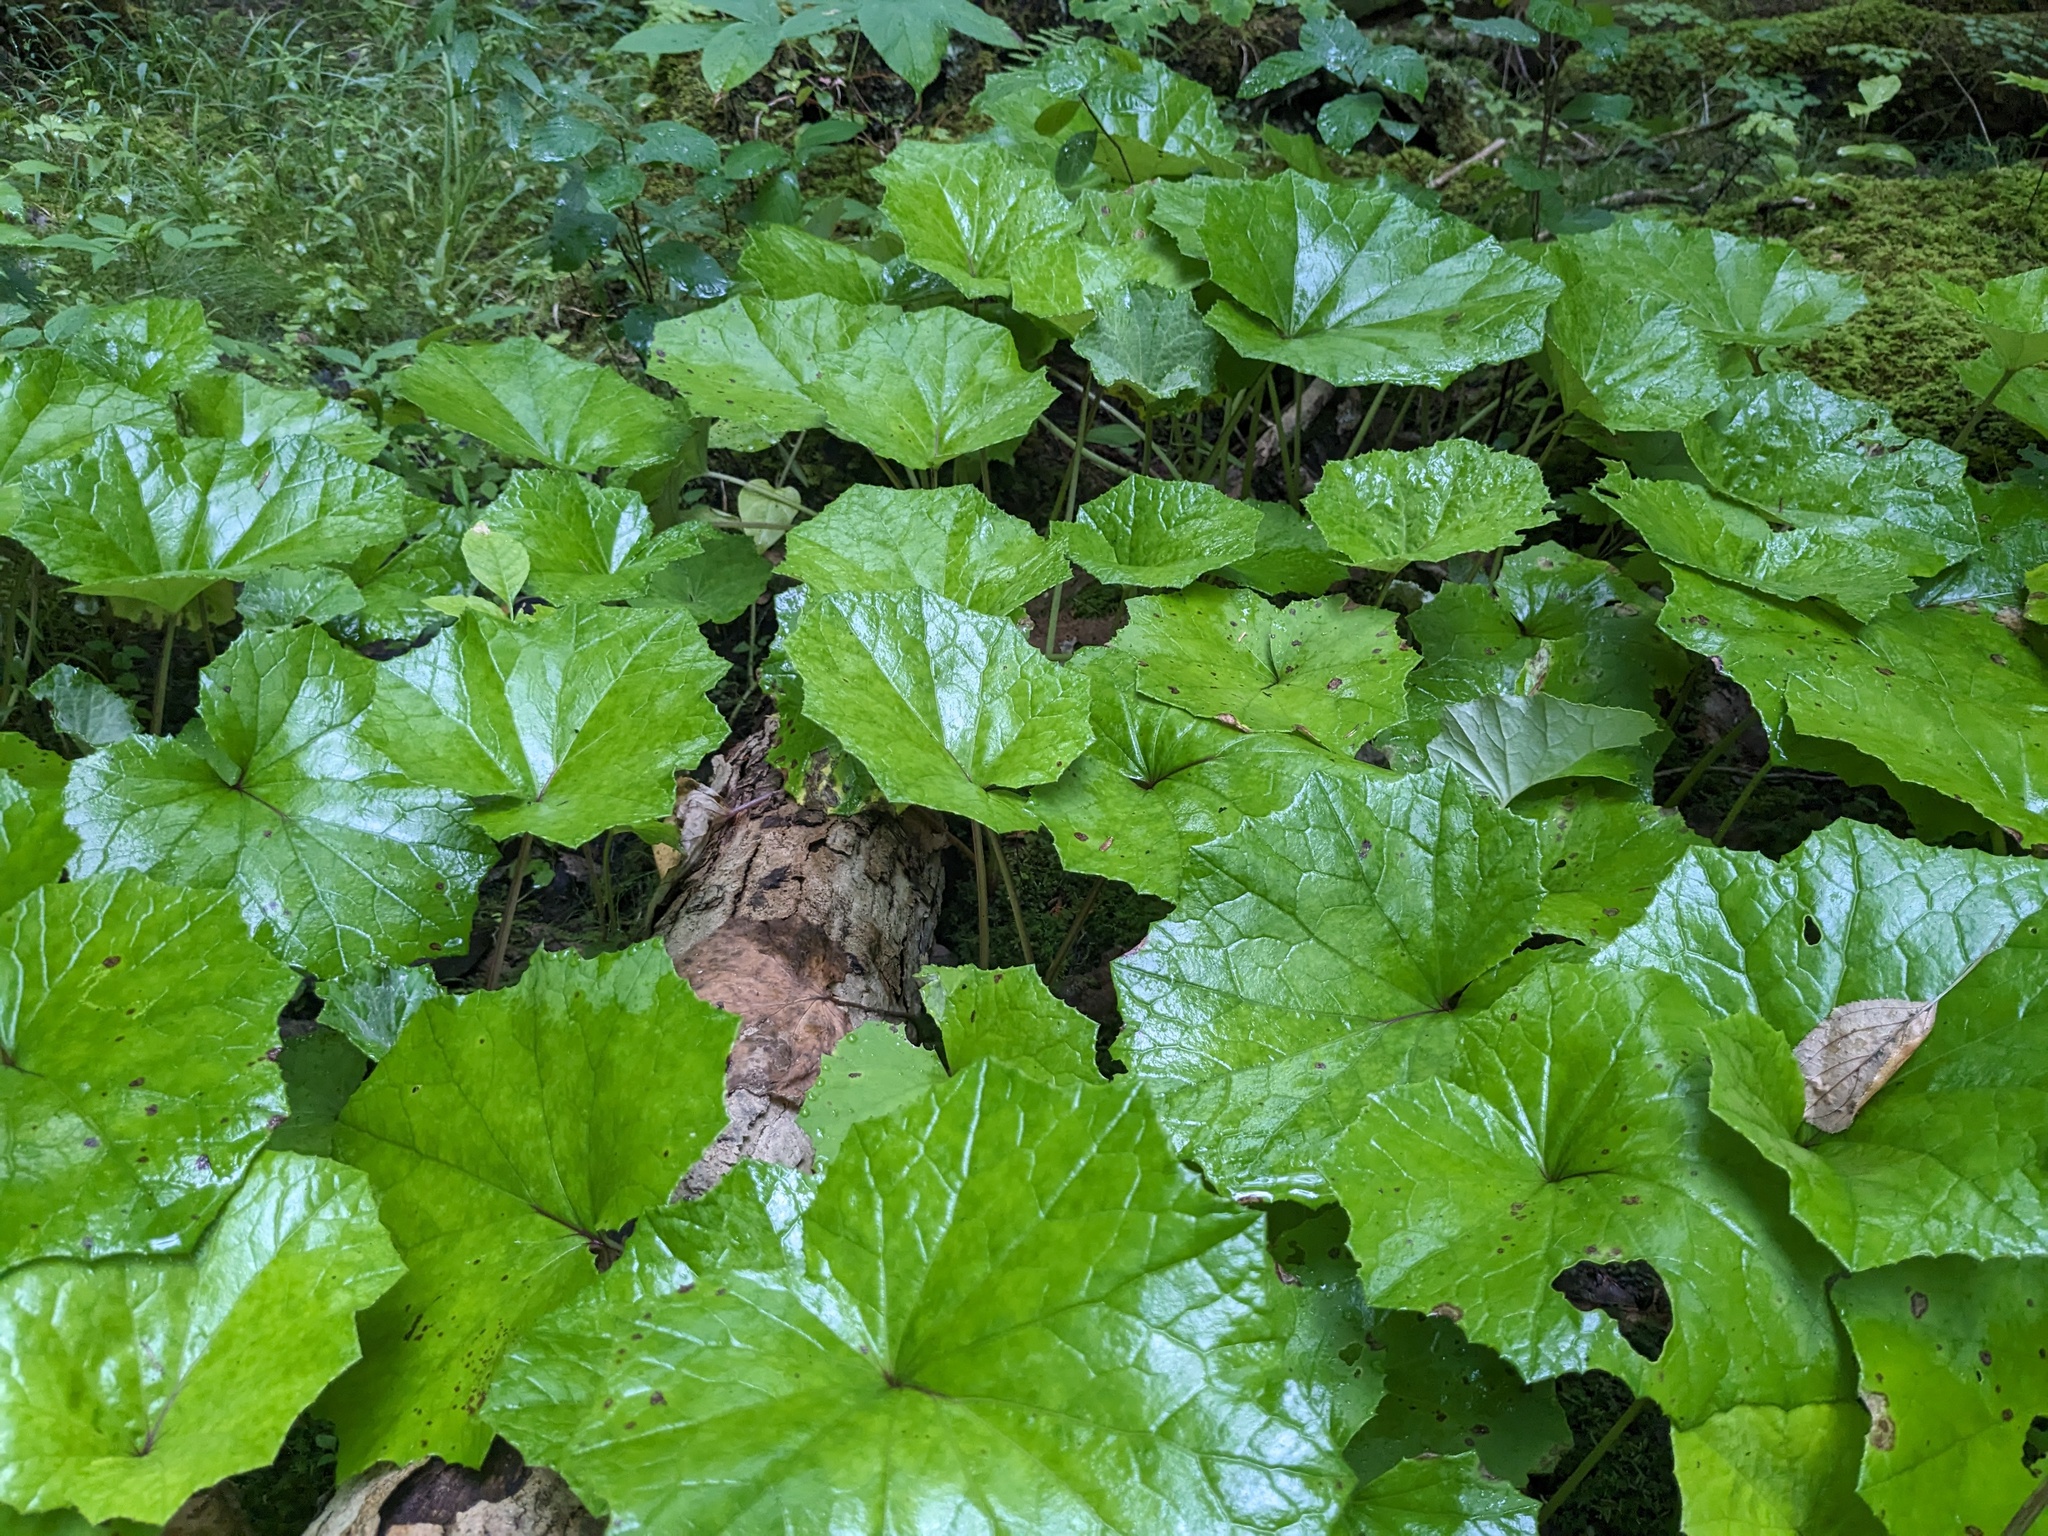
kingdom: Plantae
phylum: Tracheophyta
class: Magnoliopsida
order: Asterales
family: Asteraceae
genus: Tussilago
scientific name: Tussilago farfara
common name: Coltsfoot
